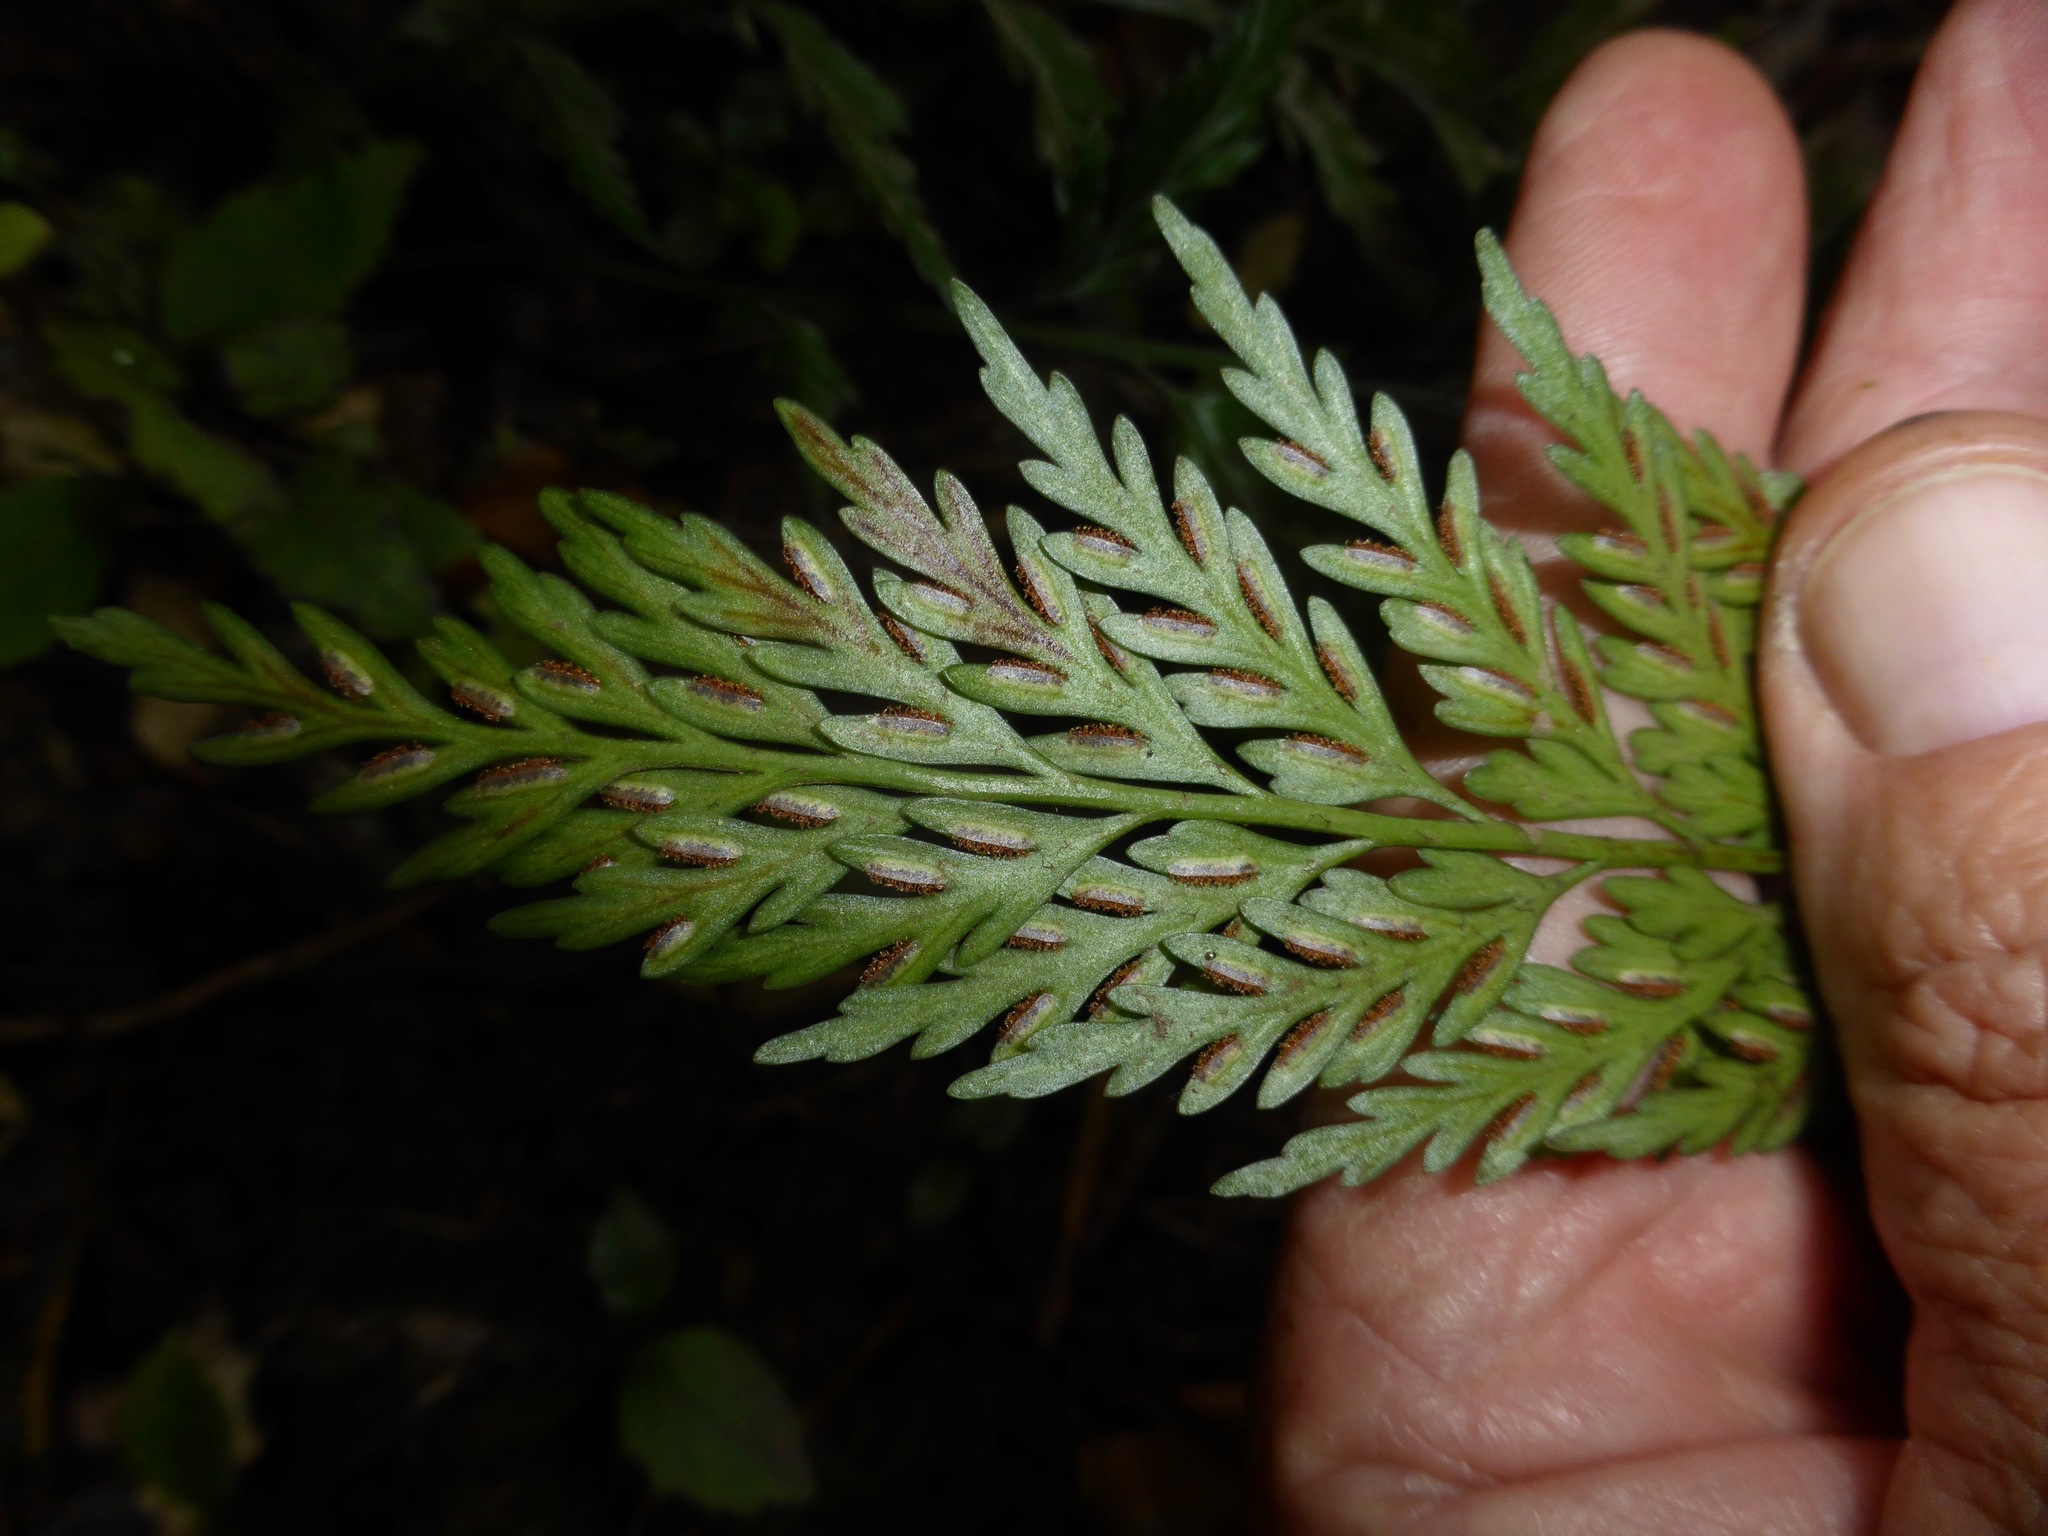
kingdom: Plantae
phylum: Tracheophyta
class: Polypodiopsida
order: Polypodiales
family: Aspleniaceae
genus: Asplenium
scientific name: Asplenium appendiculatum
